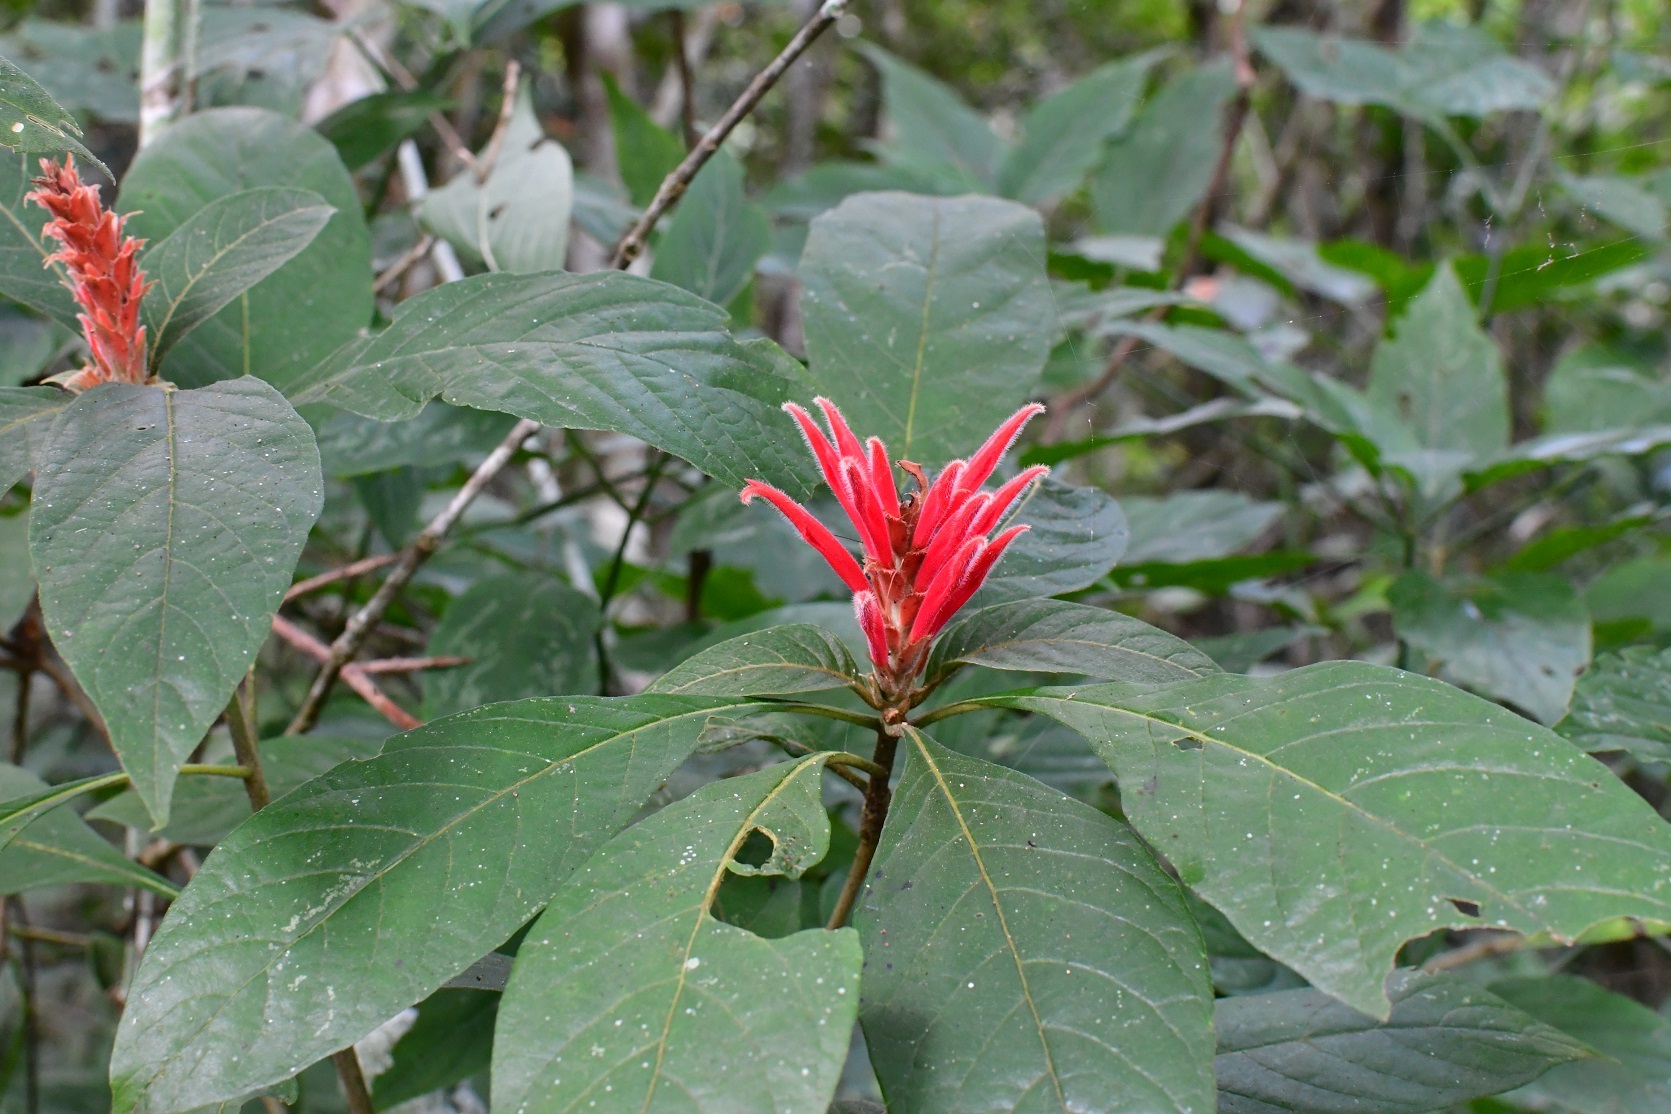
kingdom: Plantae
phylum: Tracheophyta
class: Magnoliopsida
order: Lamiales
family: Acanthaceae
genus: Aphelandra
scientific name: Aphelandra scabra
